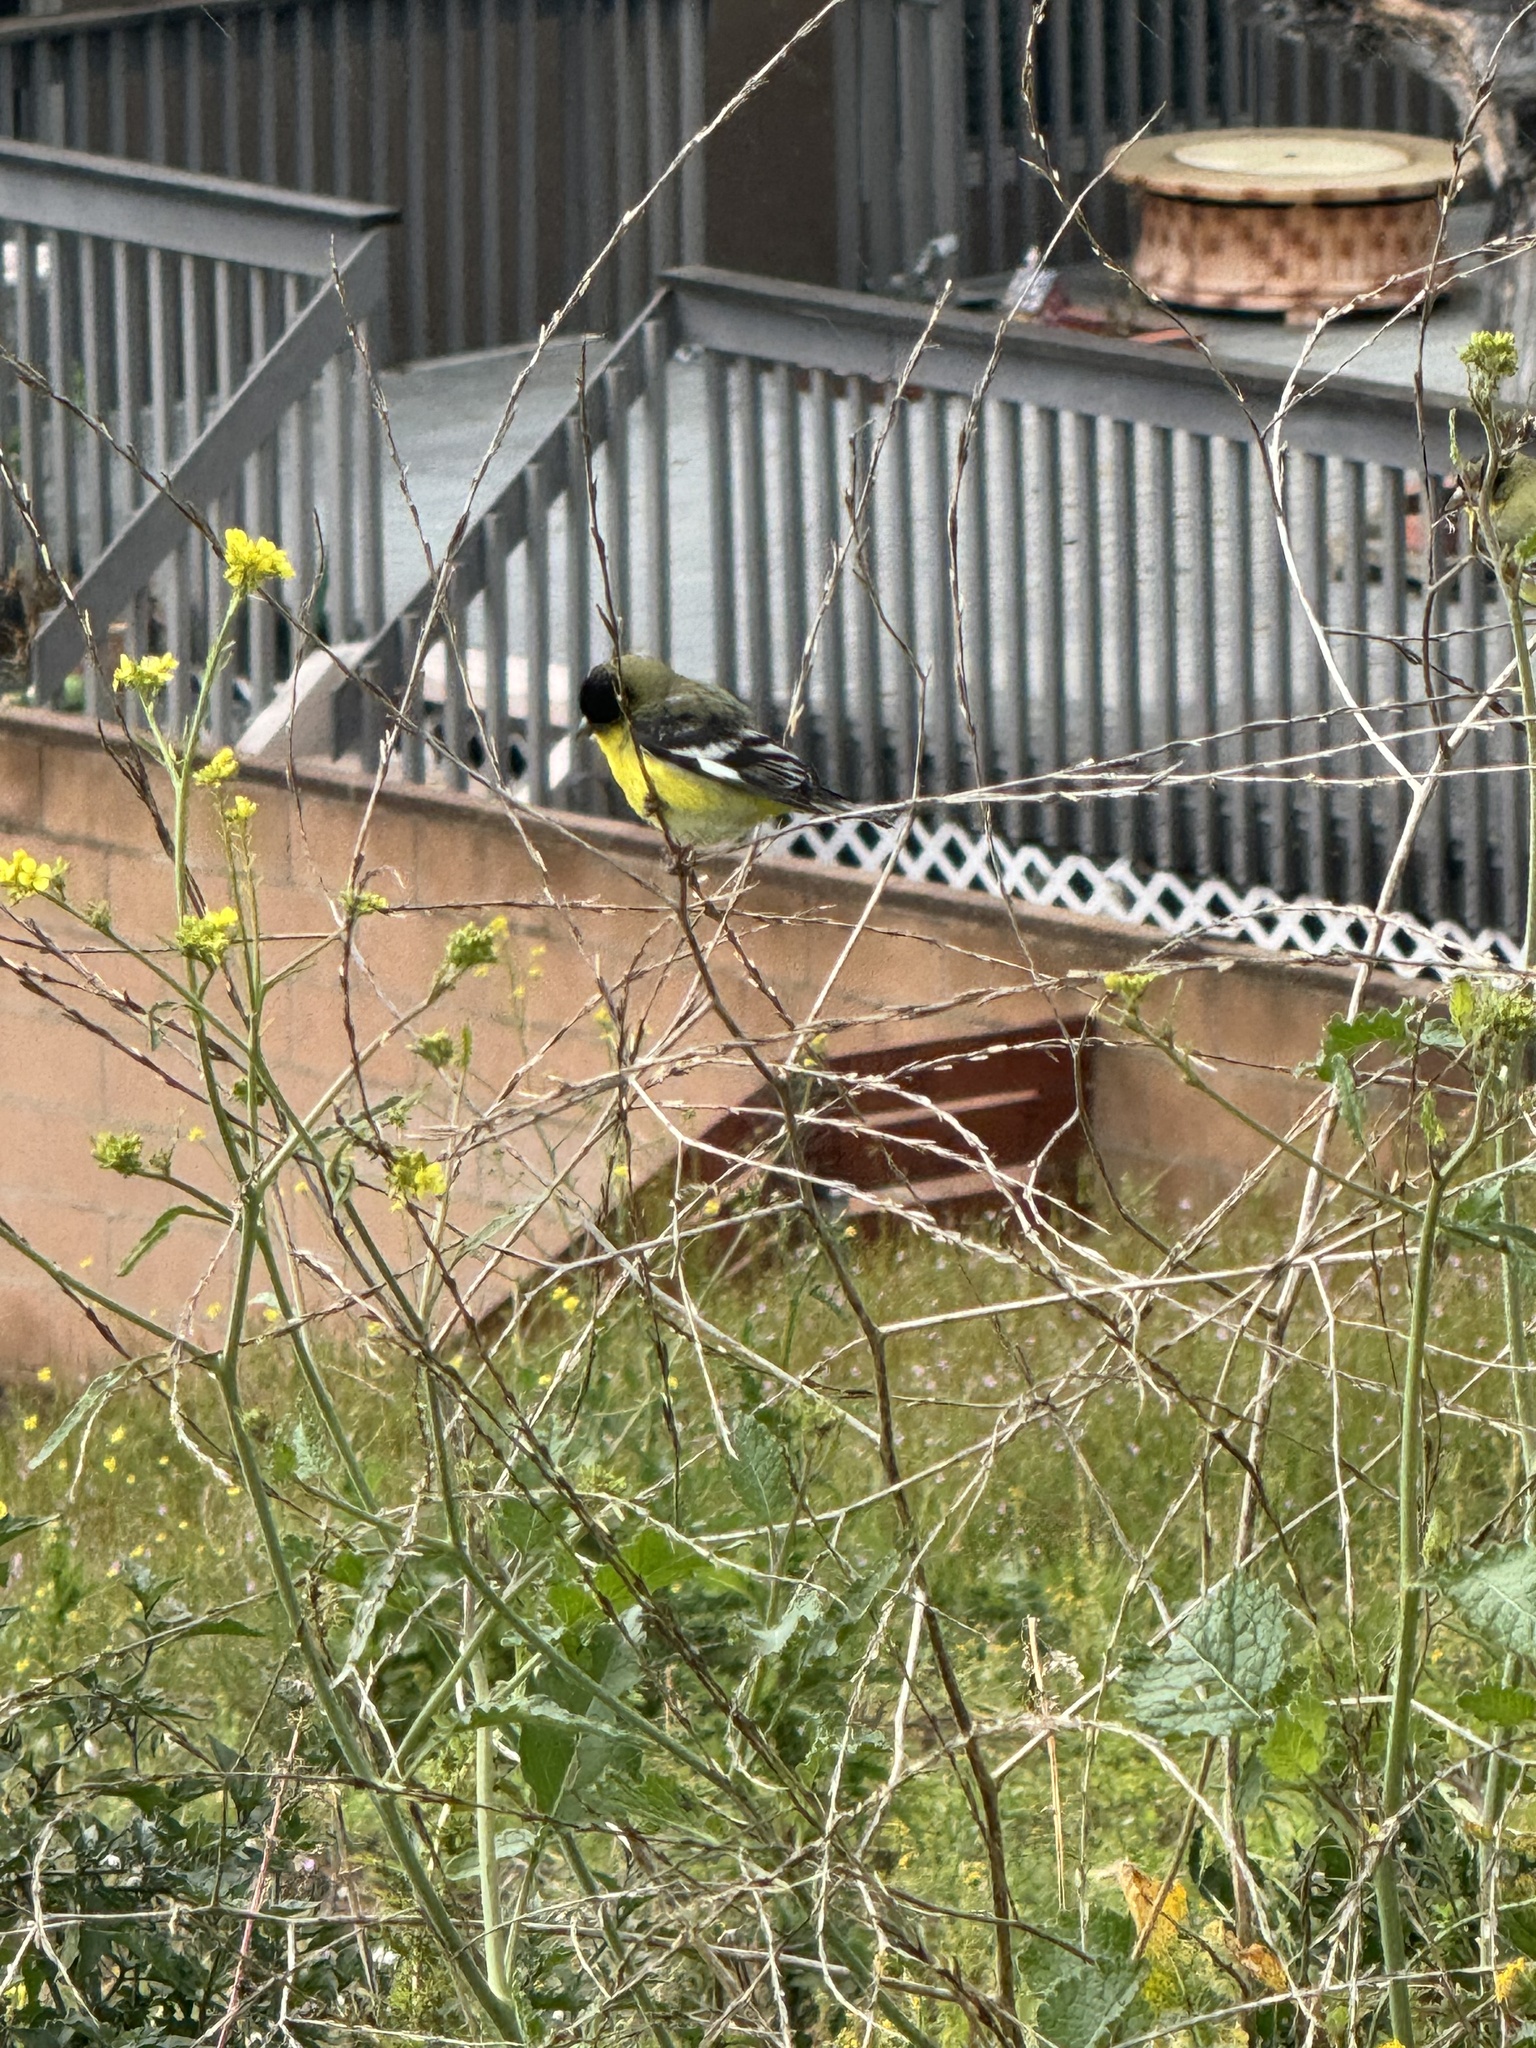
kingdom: Animalia
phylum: Chordata
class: Aves
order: Passeriformes
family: Fringillidae
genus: Spinus
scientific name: Spinus psaltria
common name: Lesser goldfinch
